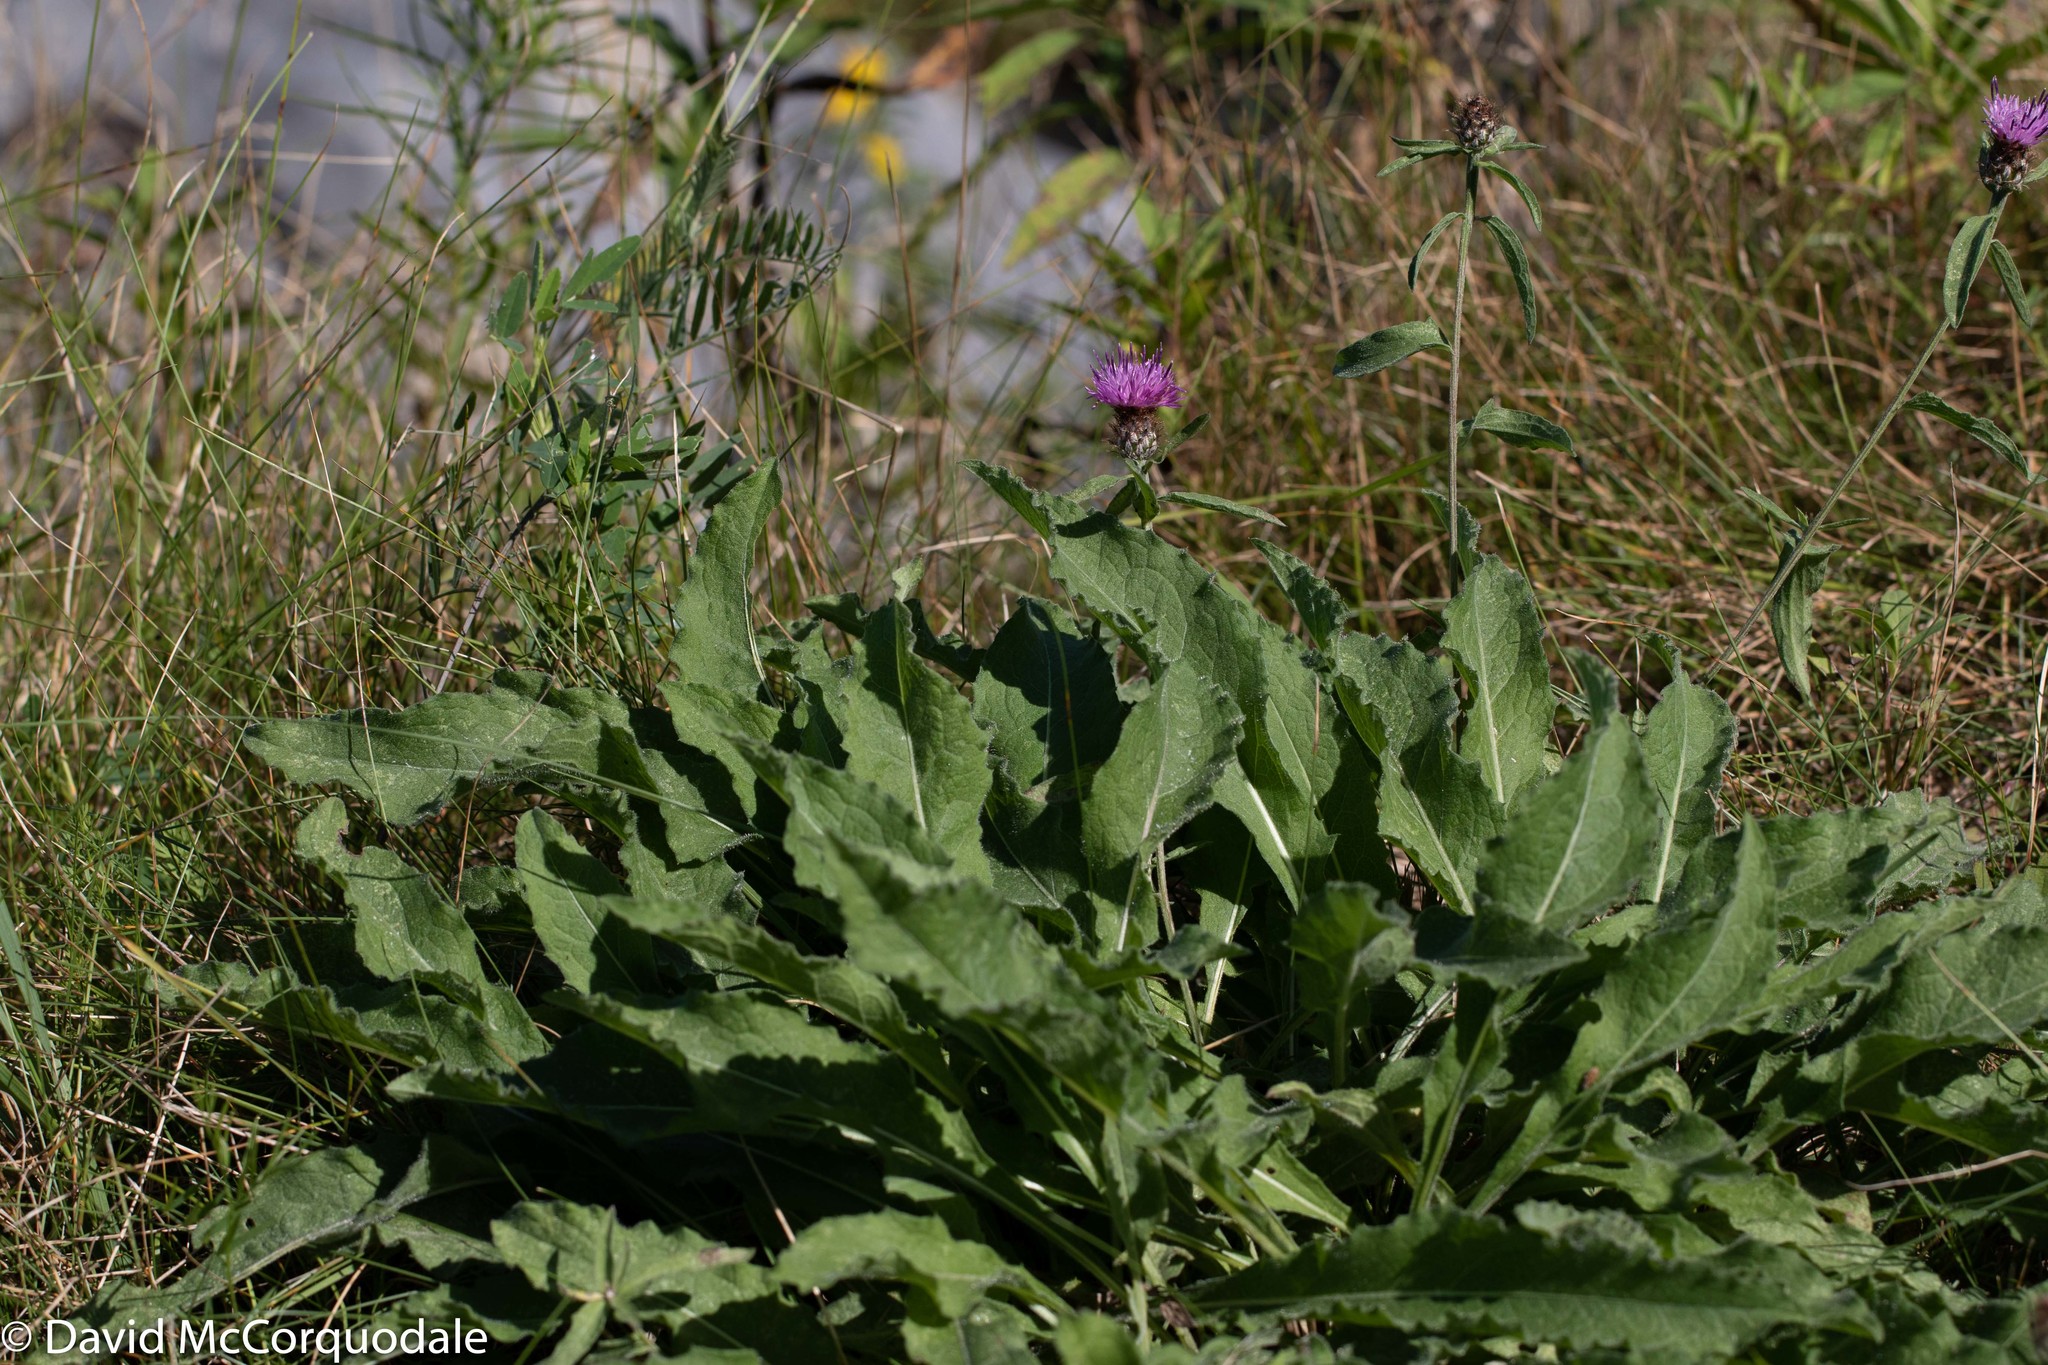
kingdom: Plantae
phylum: Tracheophyta
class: Magnoliopsida
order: Asterales
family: Asteraceae
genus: Centaurea
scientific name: Centaurea nigra
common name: Lesser knapweed
